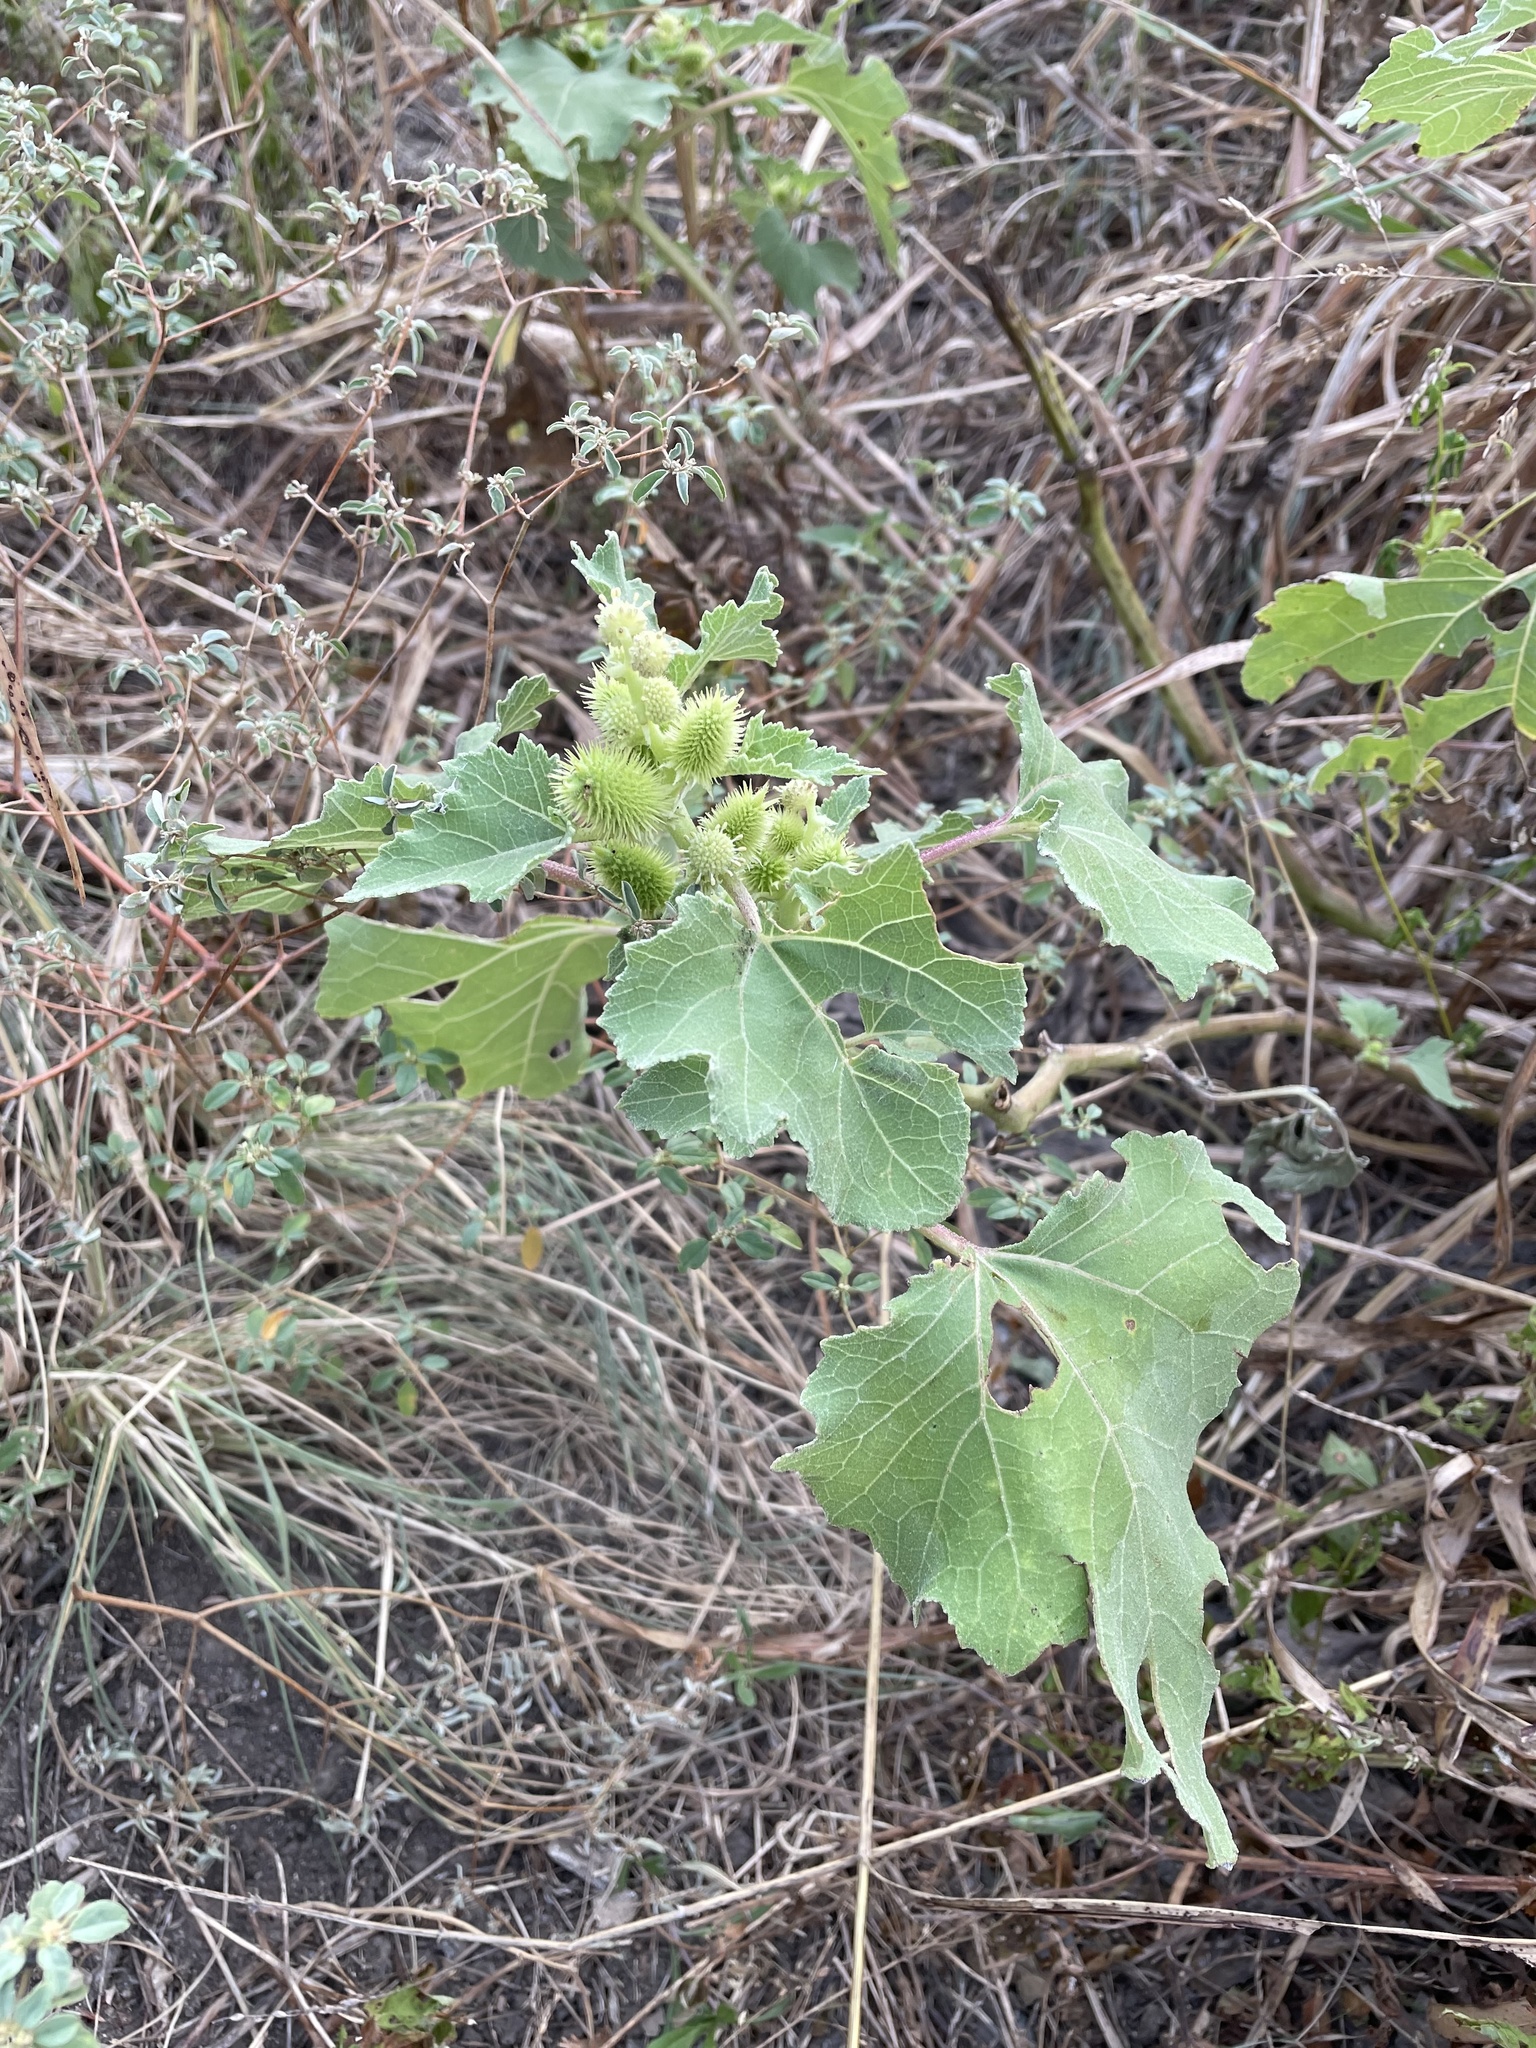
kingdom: Plantae
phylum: Tracheophyta
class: Magnoliopsida
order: Asterales
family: Asteraceae
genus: Xanthium
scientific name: Xanthium strumarium
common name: Rough cocklebur
